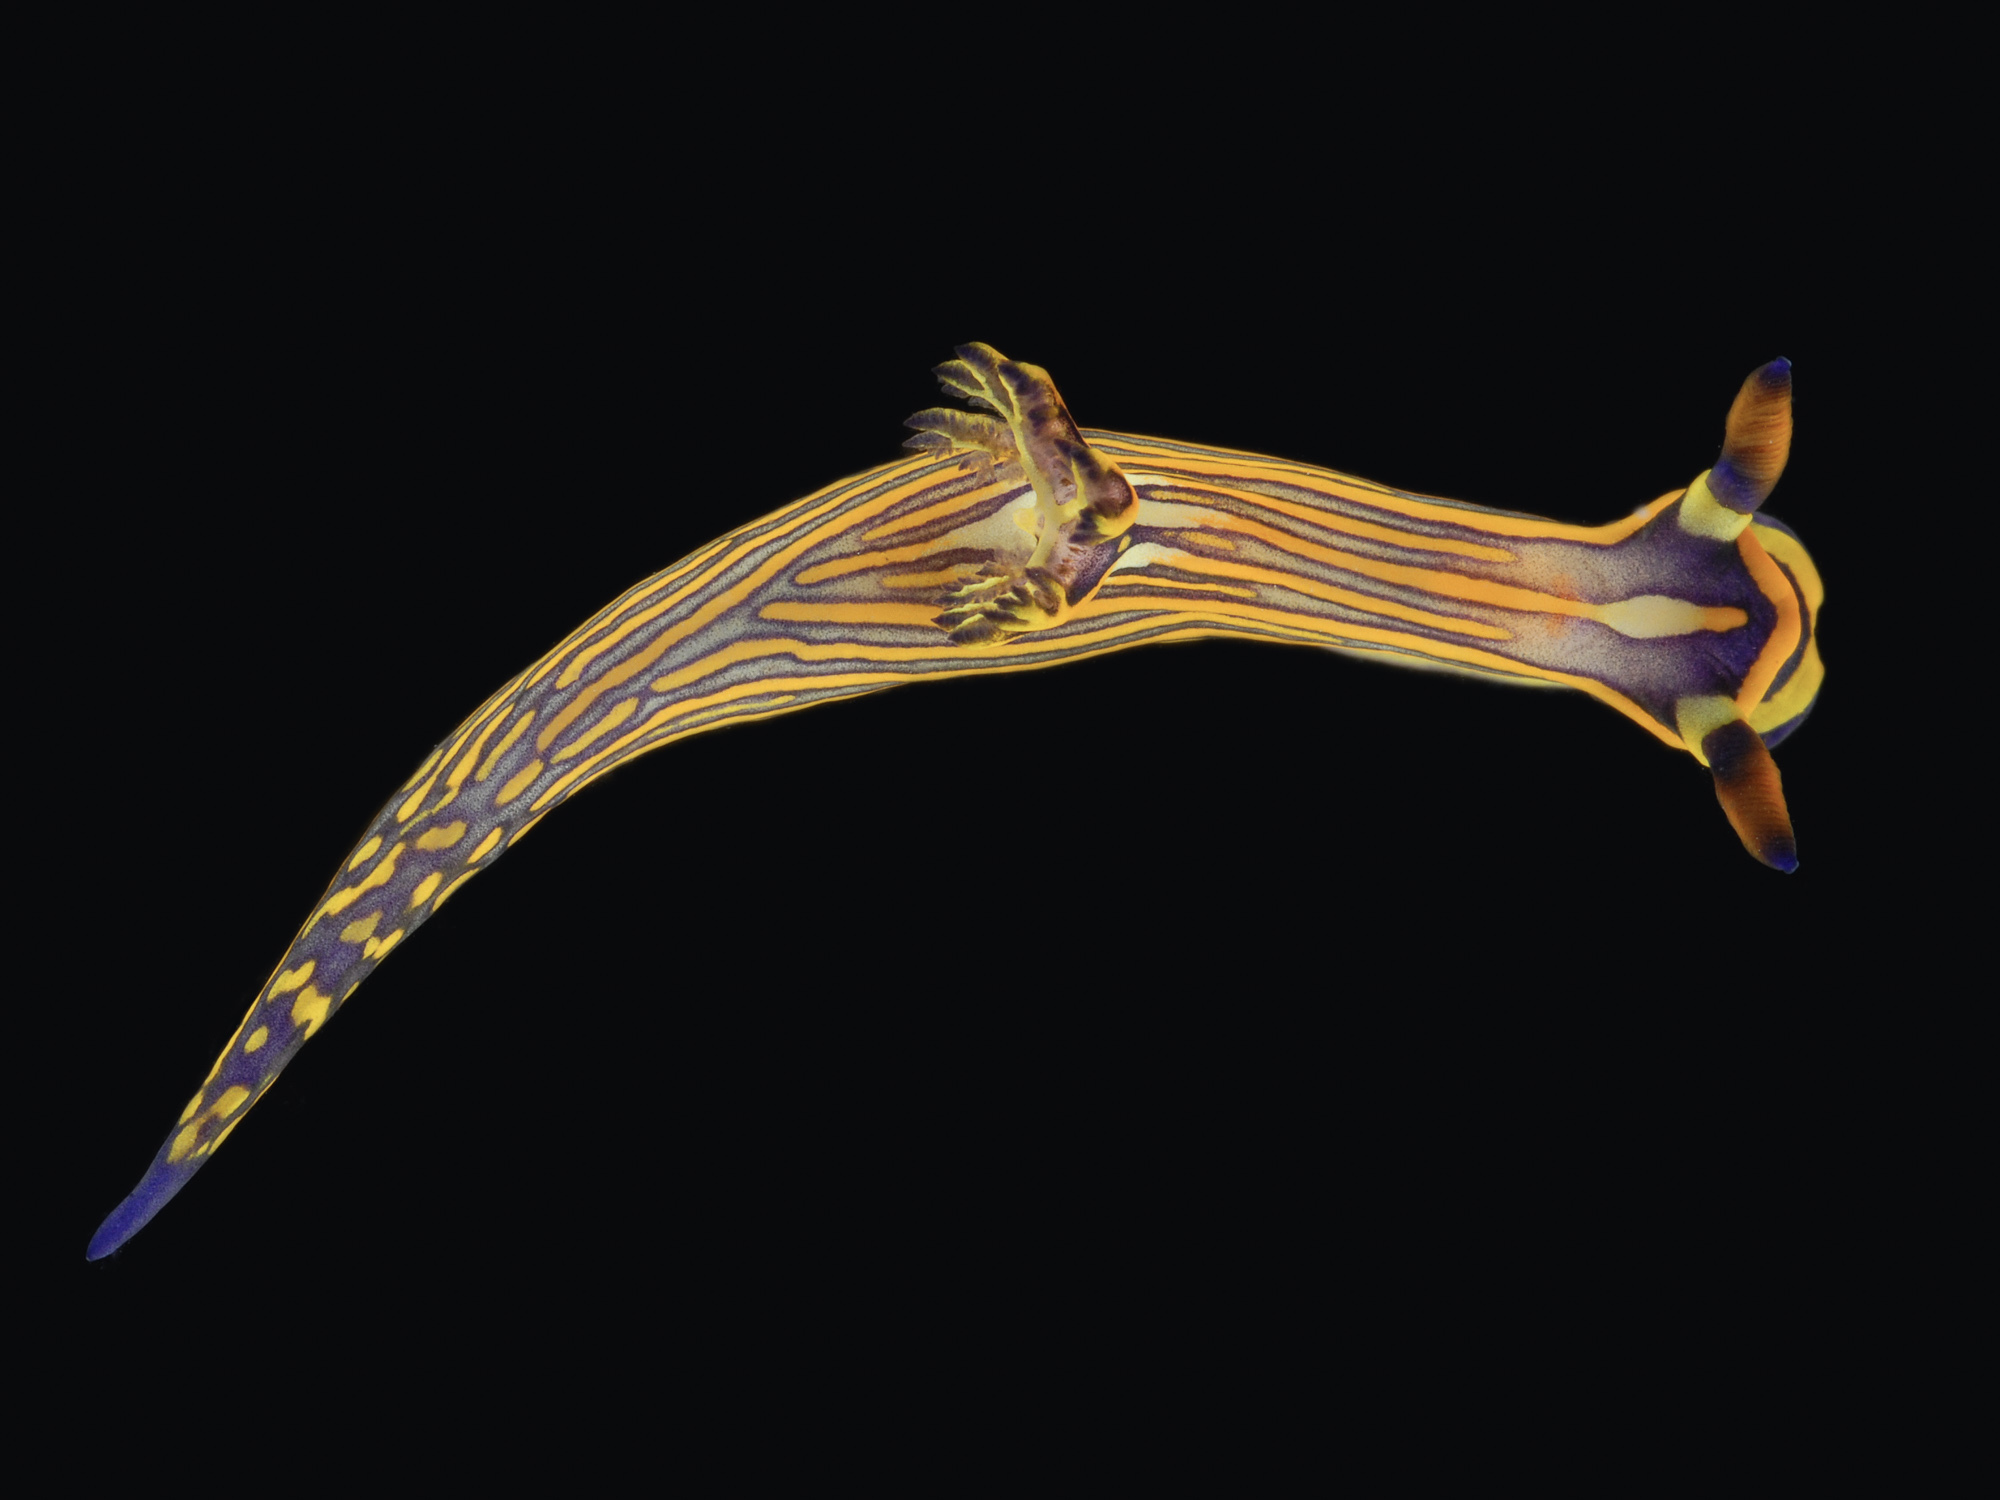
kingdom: Animalia
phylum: Mollusca
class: Gastropoda
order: Nudibranchia
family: Polyceridae
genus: Tambja
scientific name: Tambja affinis
